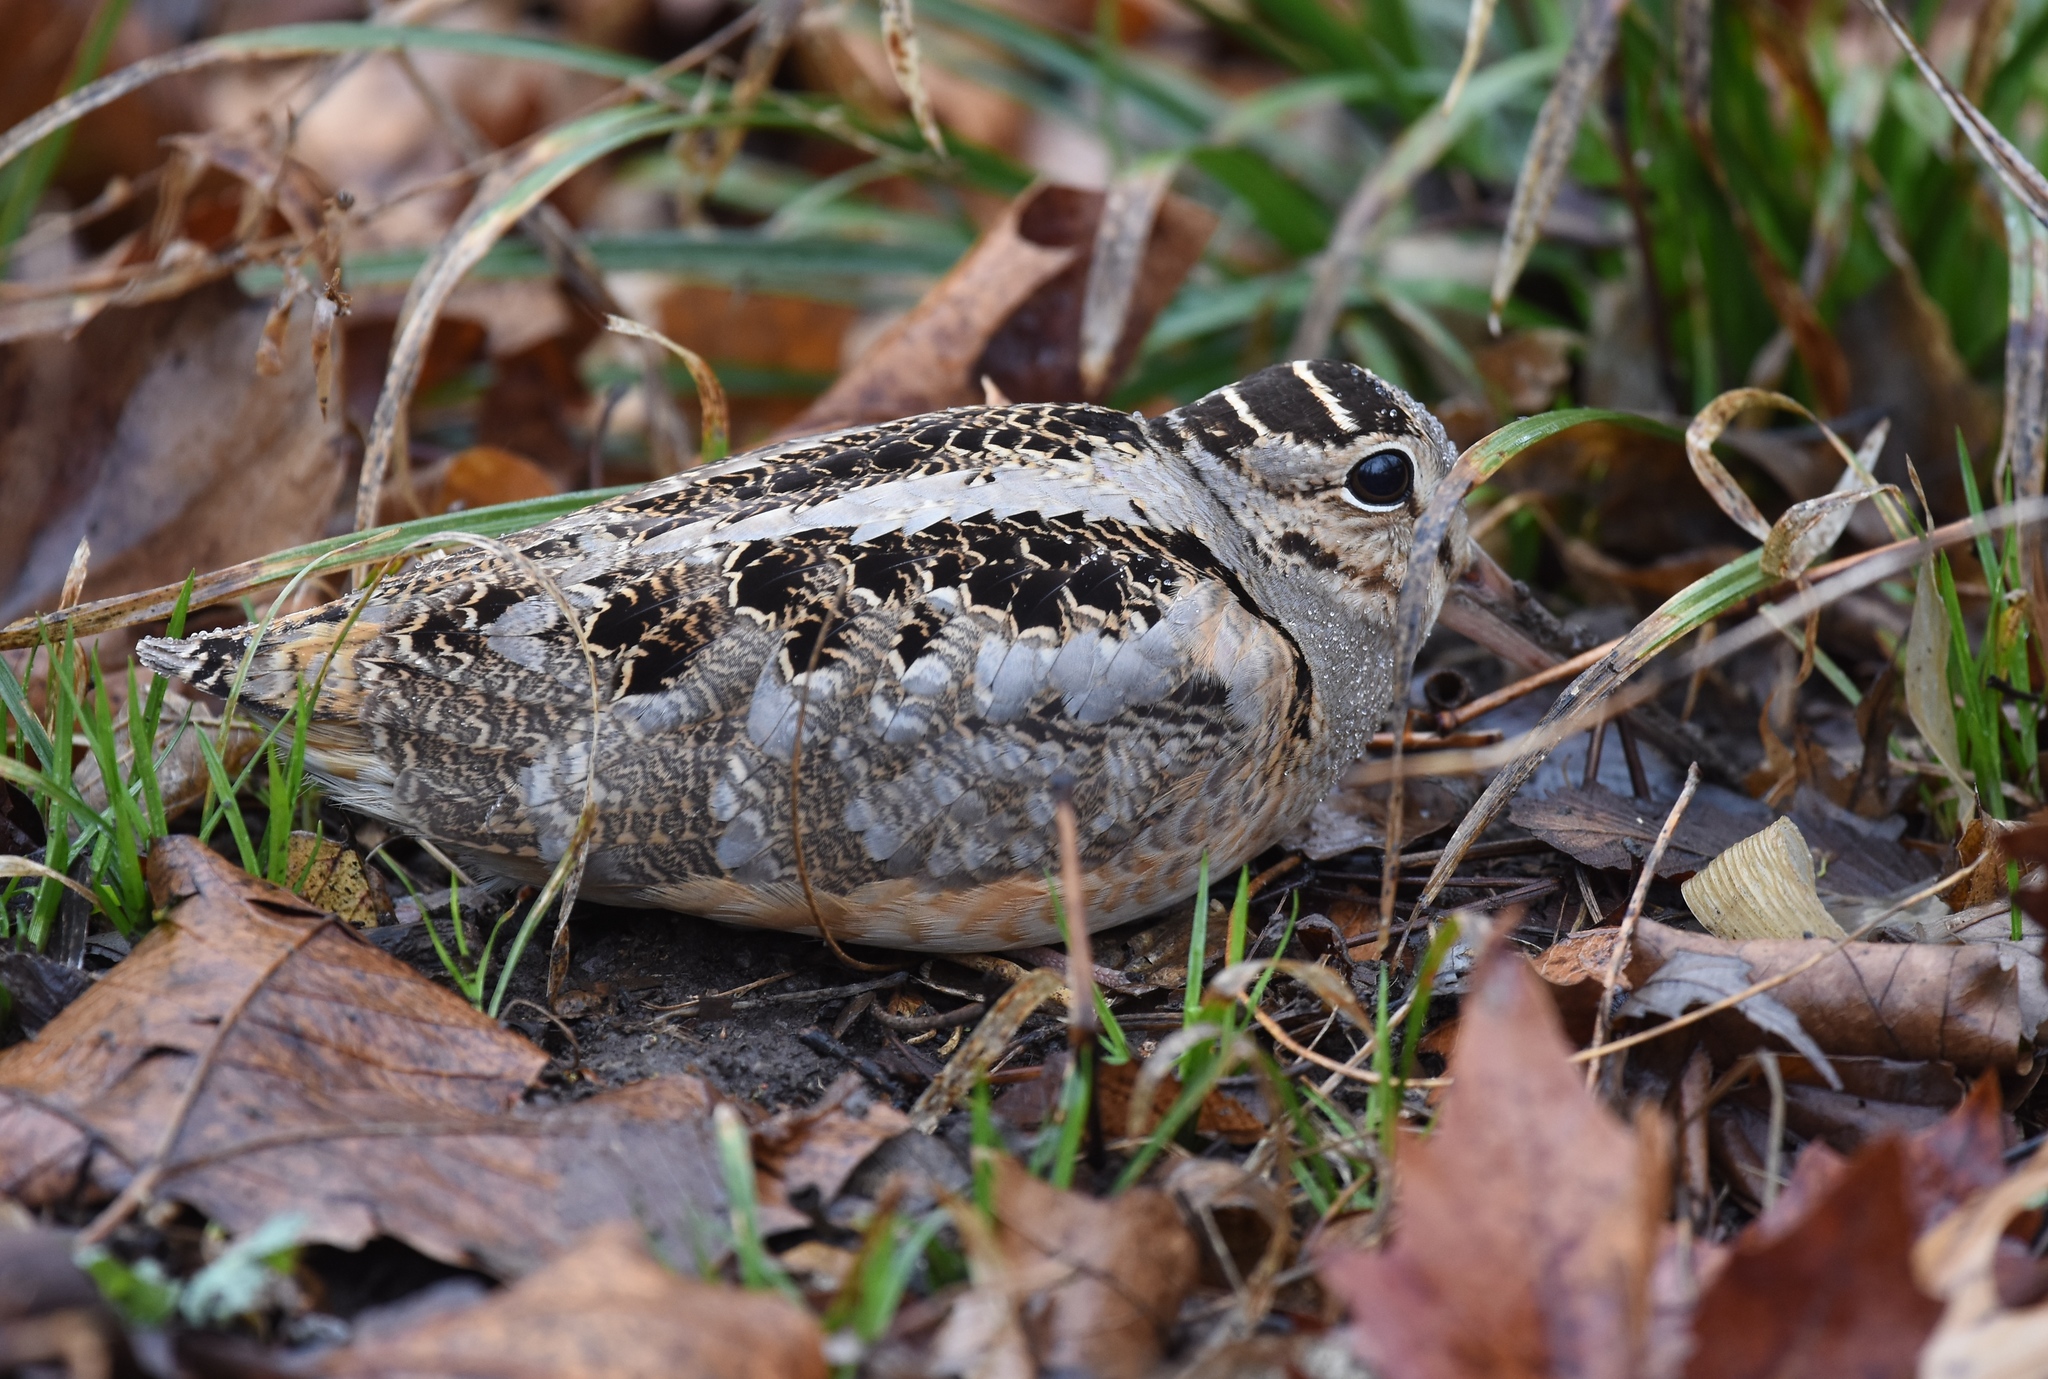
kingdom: Animalia
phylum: Chordata
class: Aves
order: Charadriiformes
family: Scolopacidae
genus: Scolopax
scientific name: Scolopax minor
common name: American woodcock
